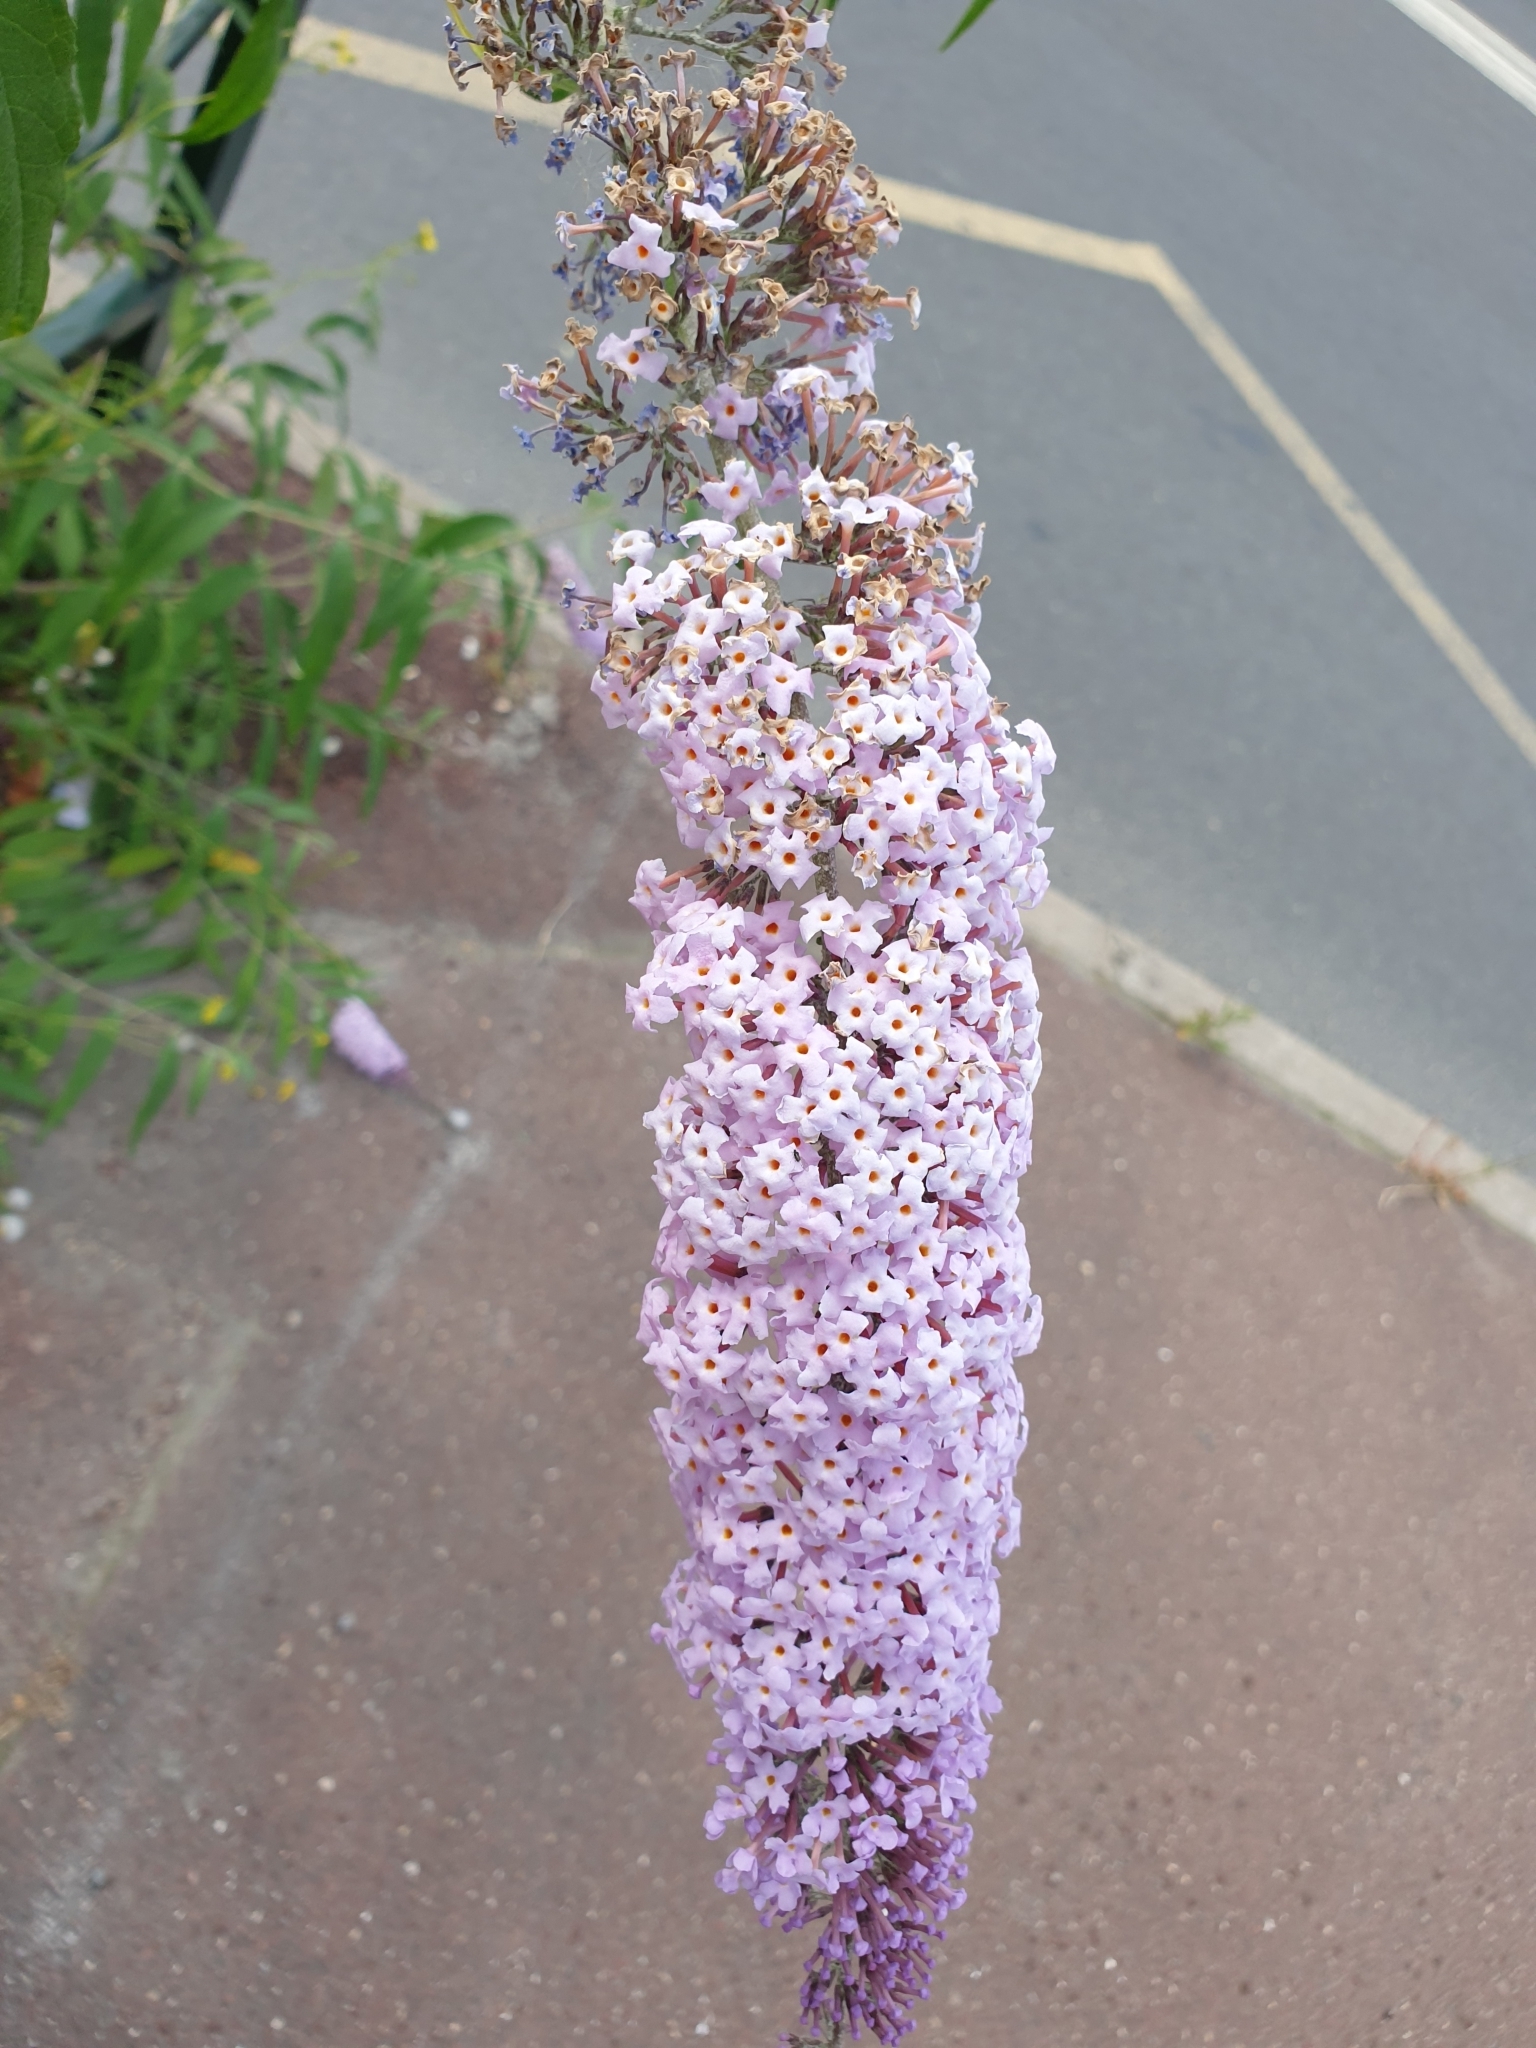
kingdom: Plantae
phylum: Tracheophyta
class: Magnoliopsida
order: Lamiales
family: Scrophulariaceae
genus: Buddleja
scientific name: Buddleja davidii
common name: Butterfly-bush
